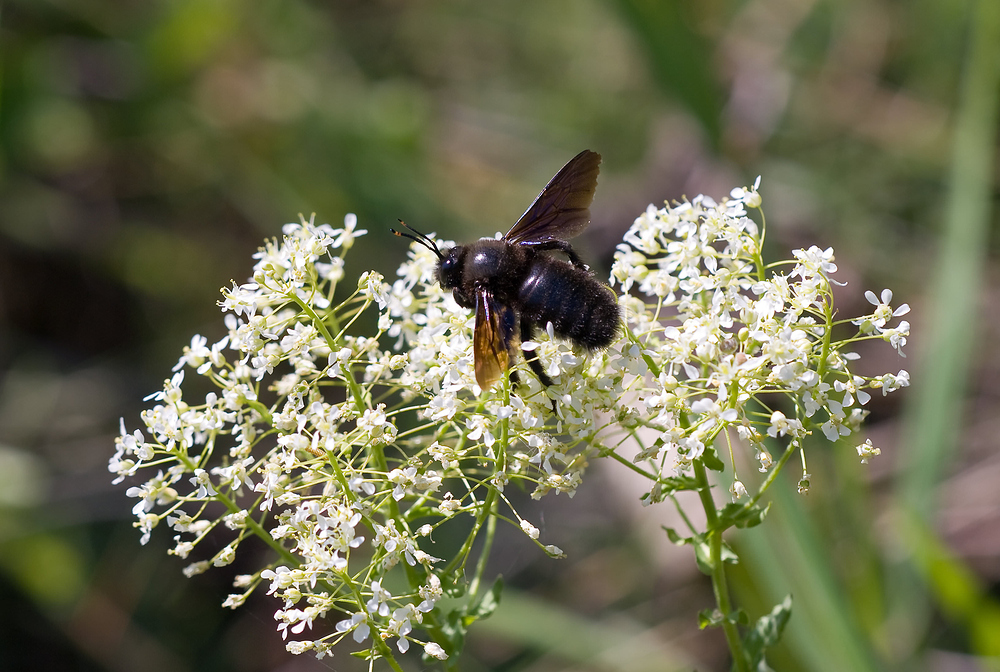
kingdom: Animalia
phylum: Arthropoda
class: Insecta
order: Hymenoptera
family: Apidae
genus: Xylocopa
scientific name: Xylocopa violacea
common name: Violet carpenter bee
